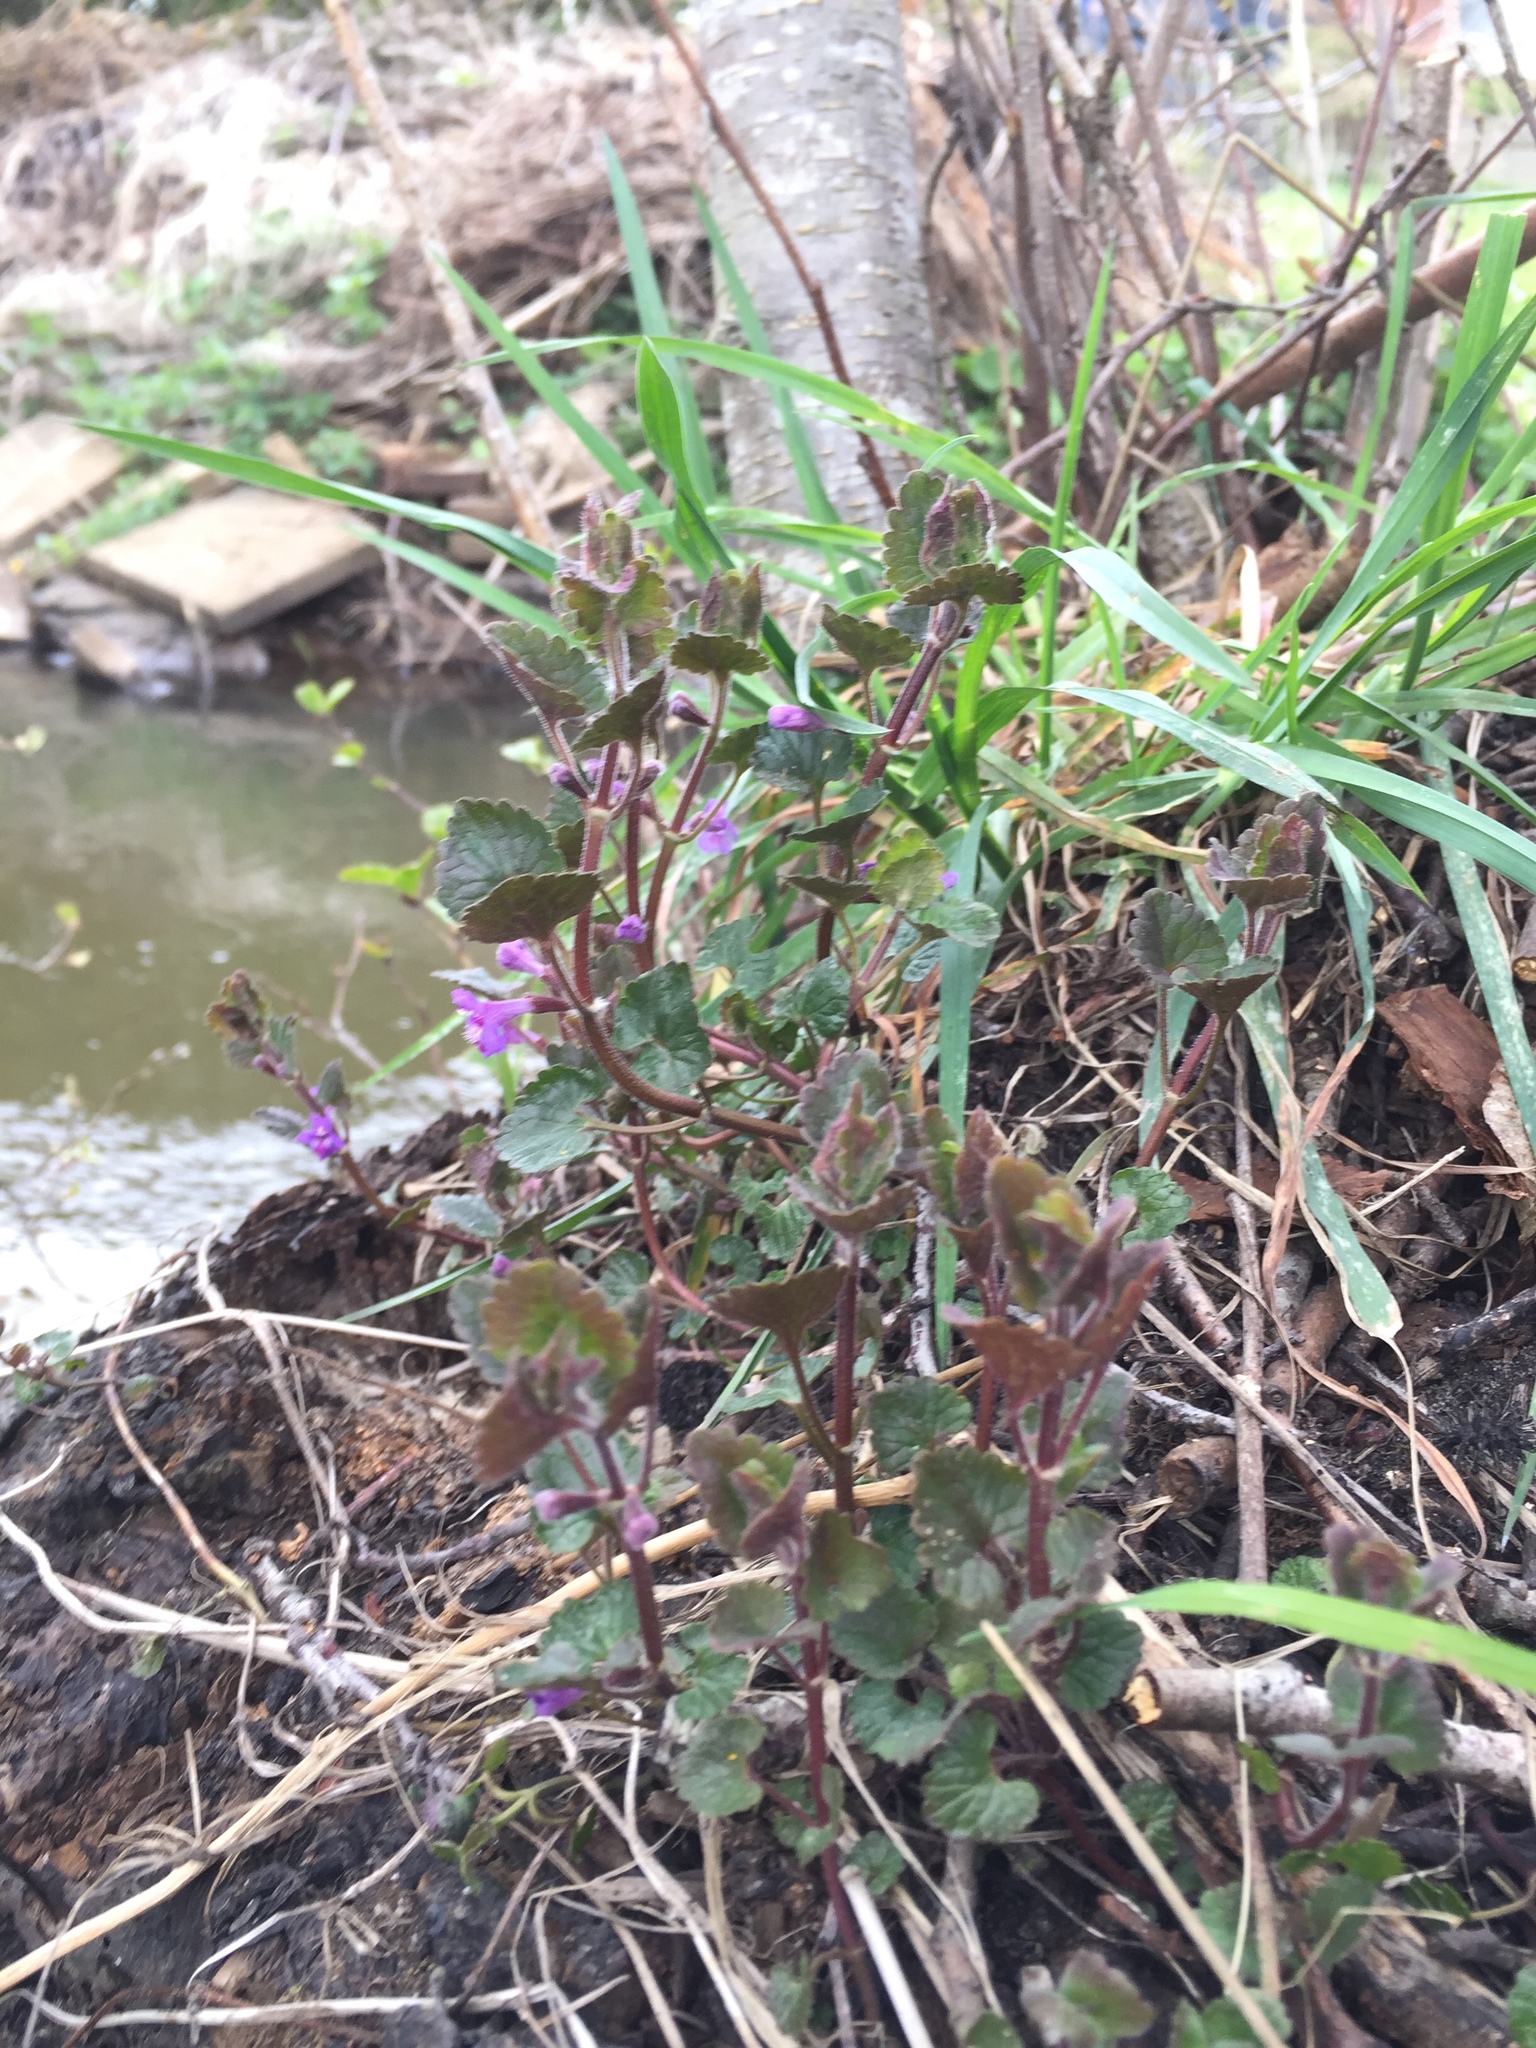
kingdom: Plantae
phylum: Tracheophyta
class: Magnoliopsida
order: Lamiales
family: Lamiaceae
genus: Glechoma
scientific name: Glechoma hederacea
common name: Ground ivy
